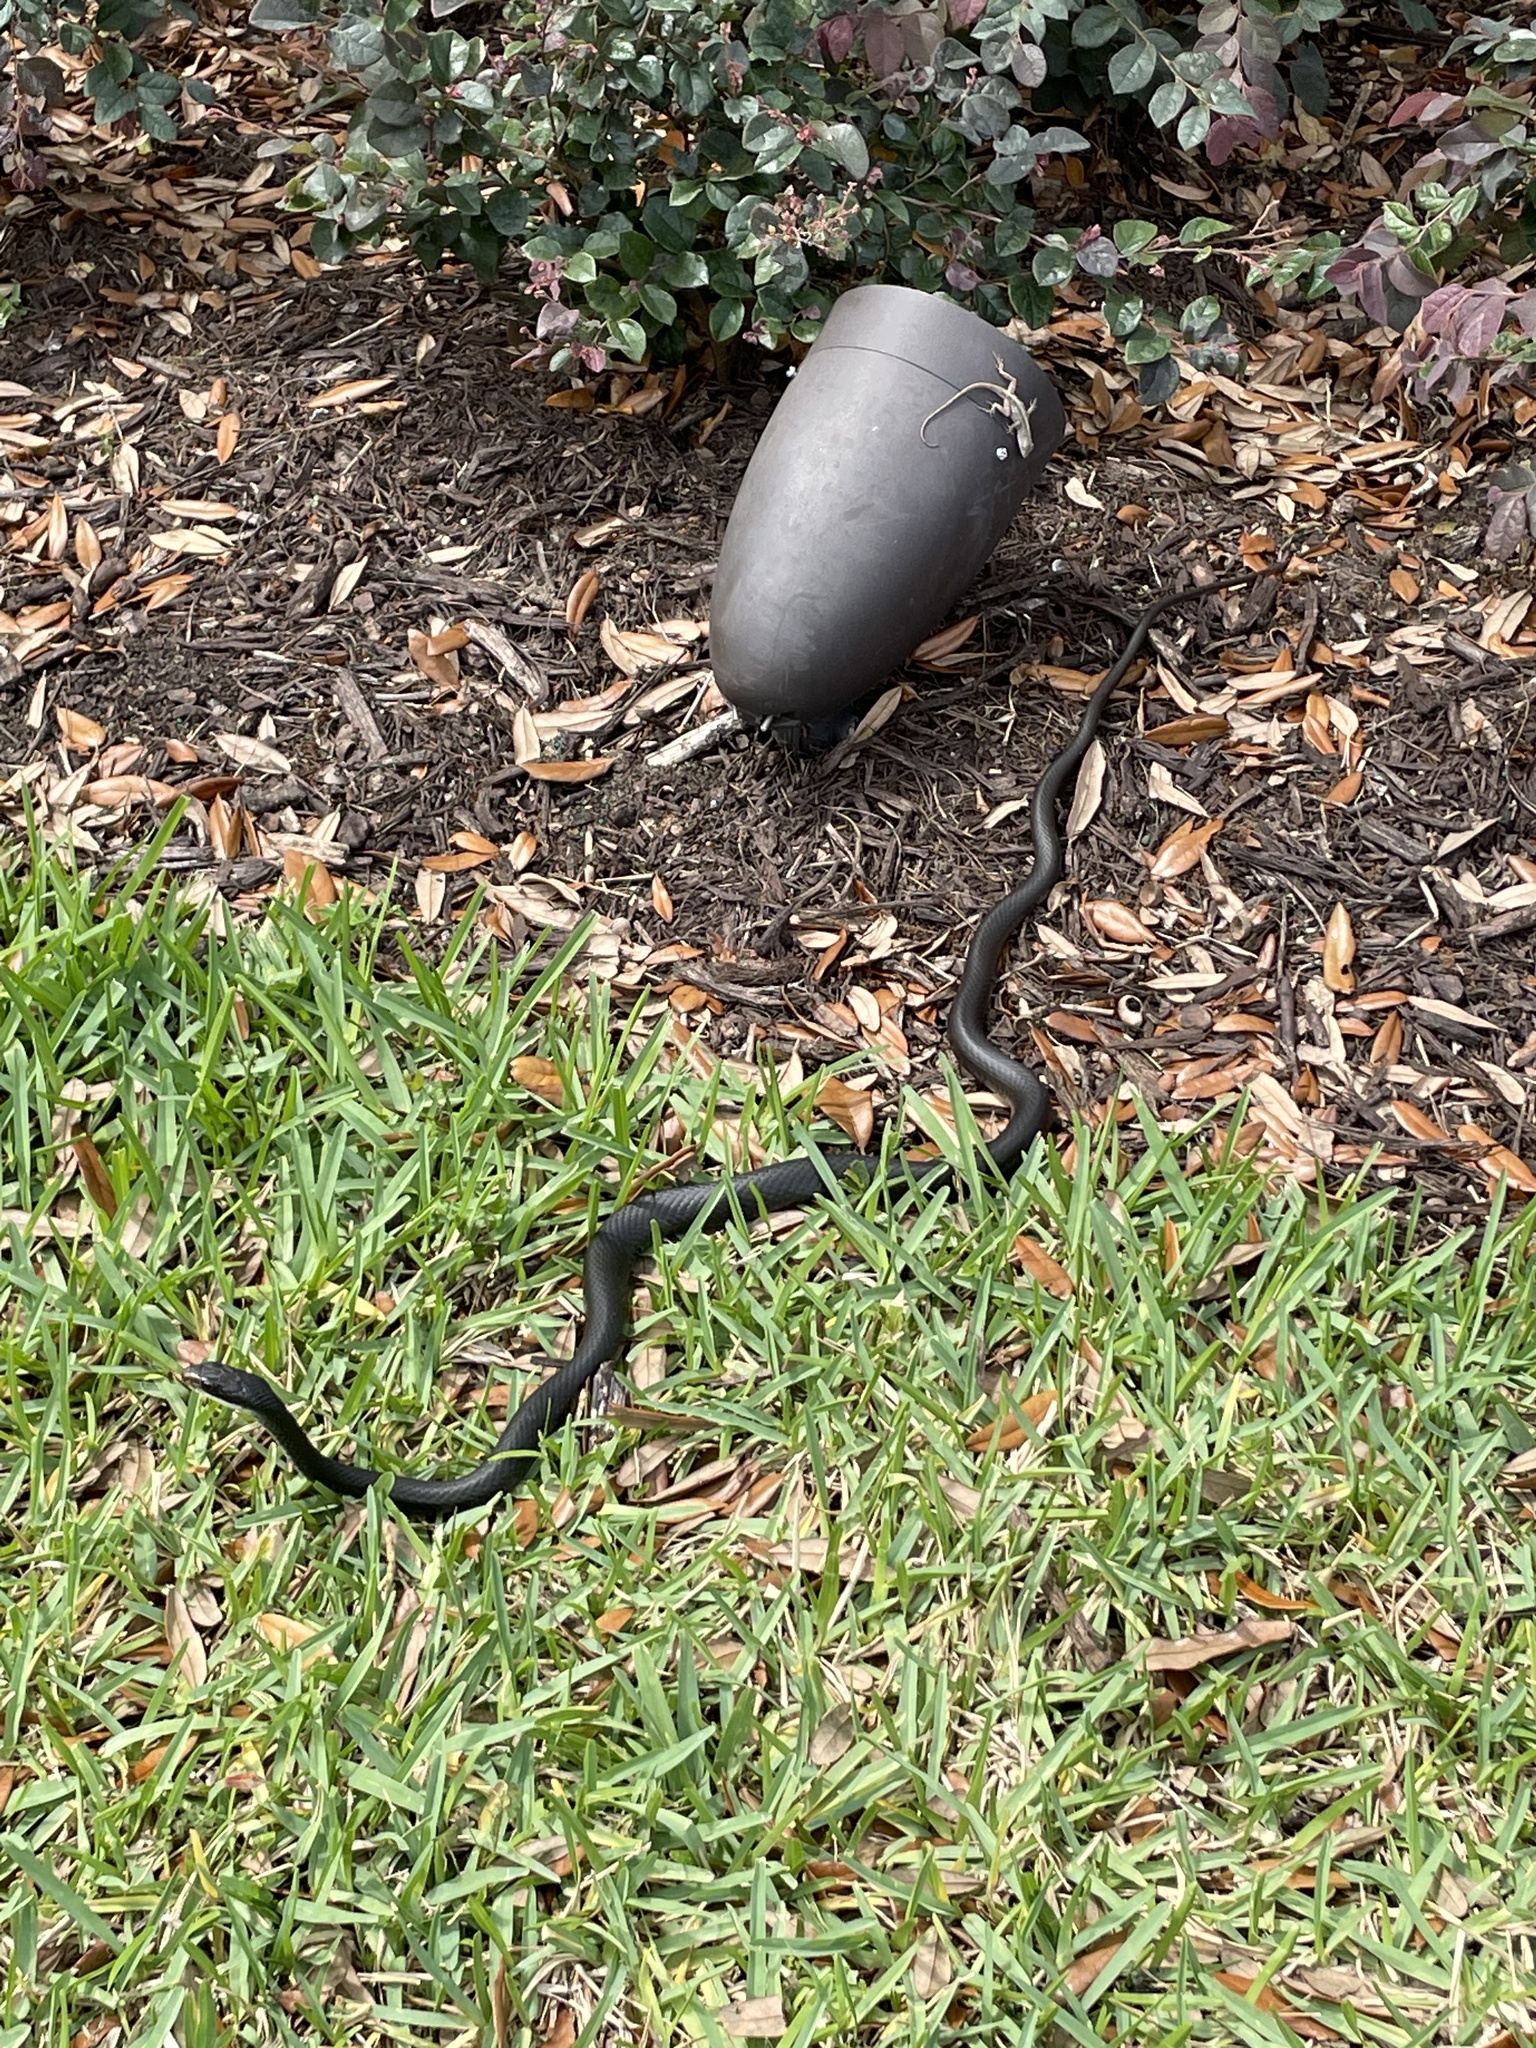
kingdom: Animalia
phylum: Chordata
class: Squamata
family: Colubridae
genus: Coluber
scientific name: Coluber constrictor
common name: Eastern racer
